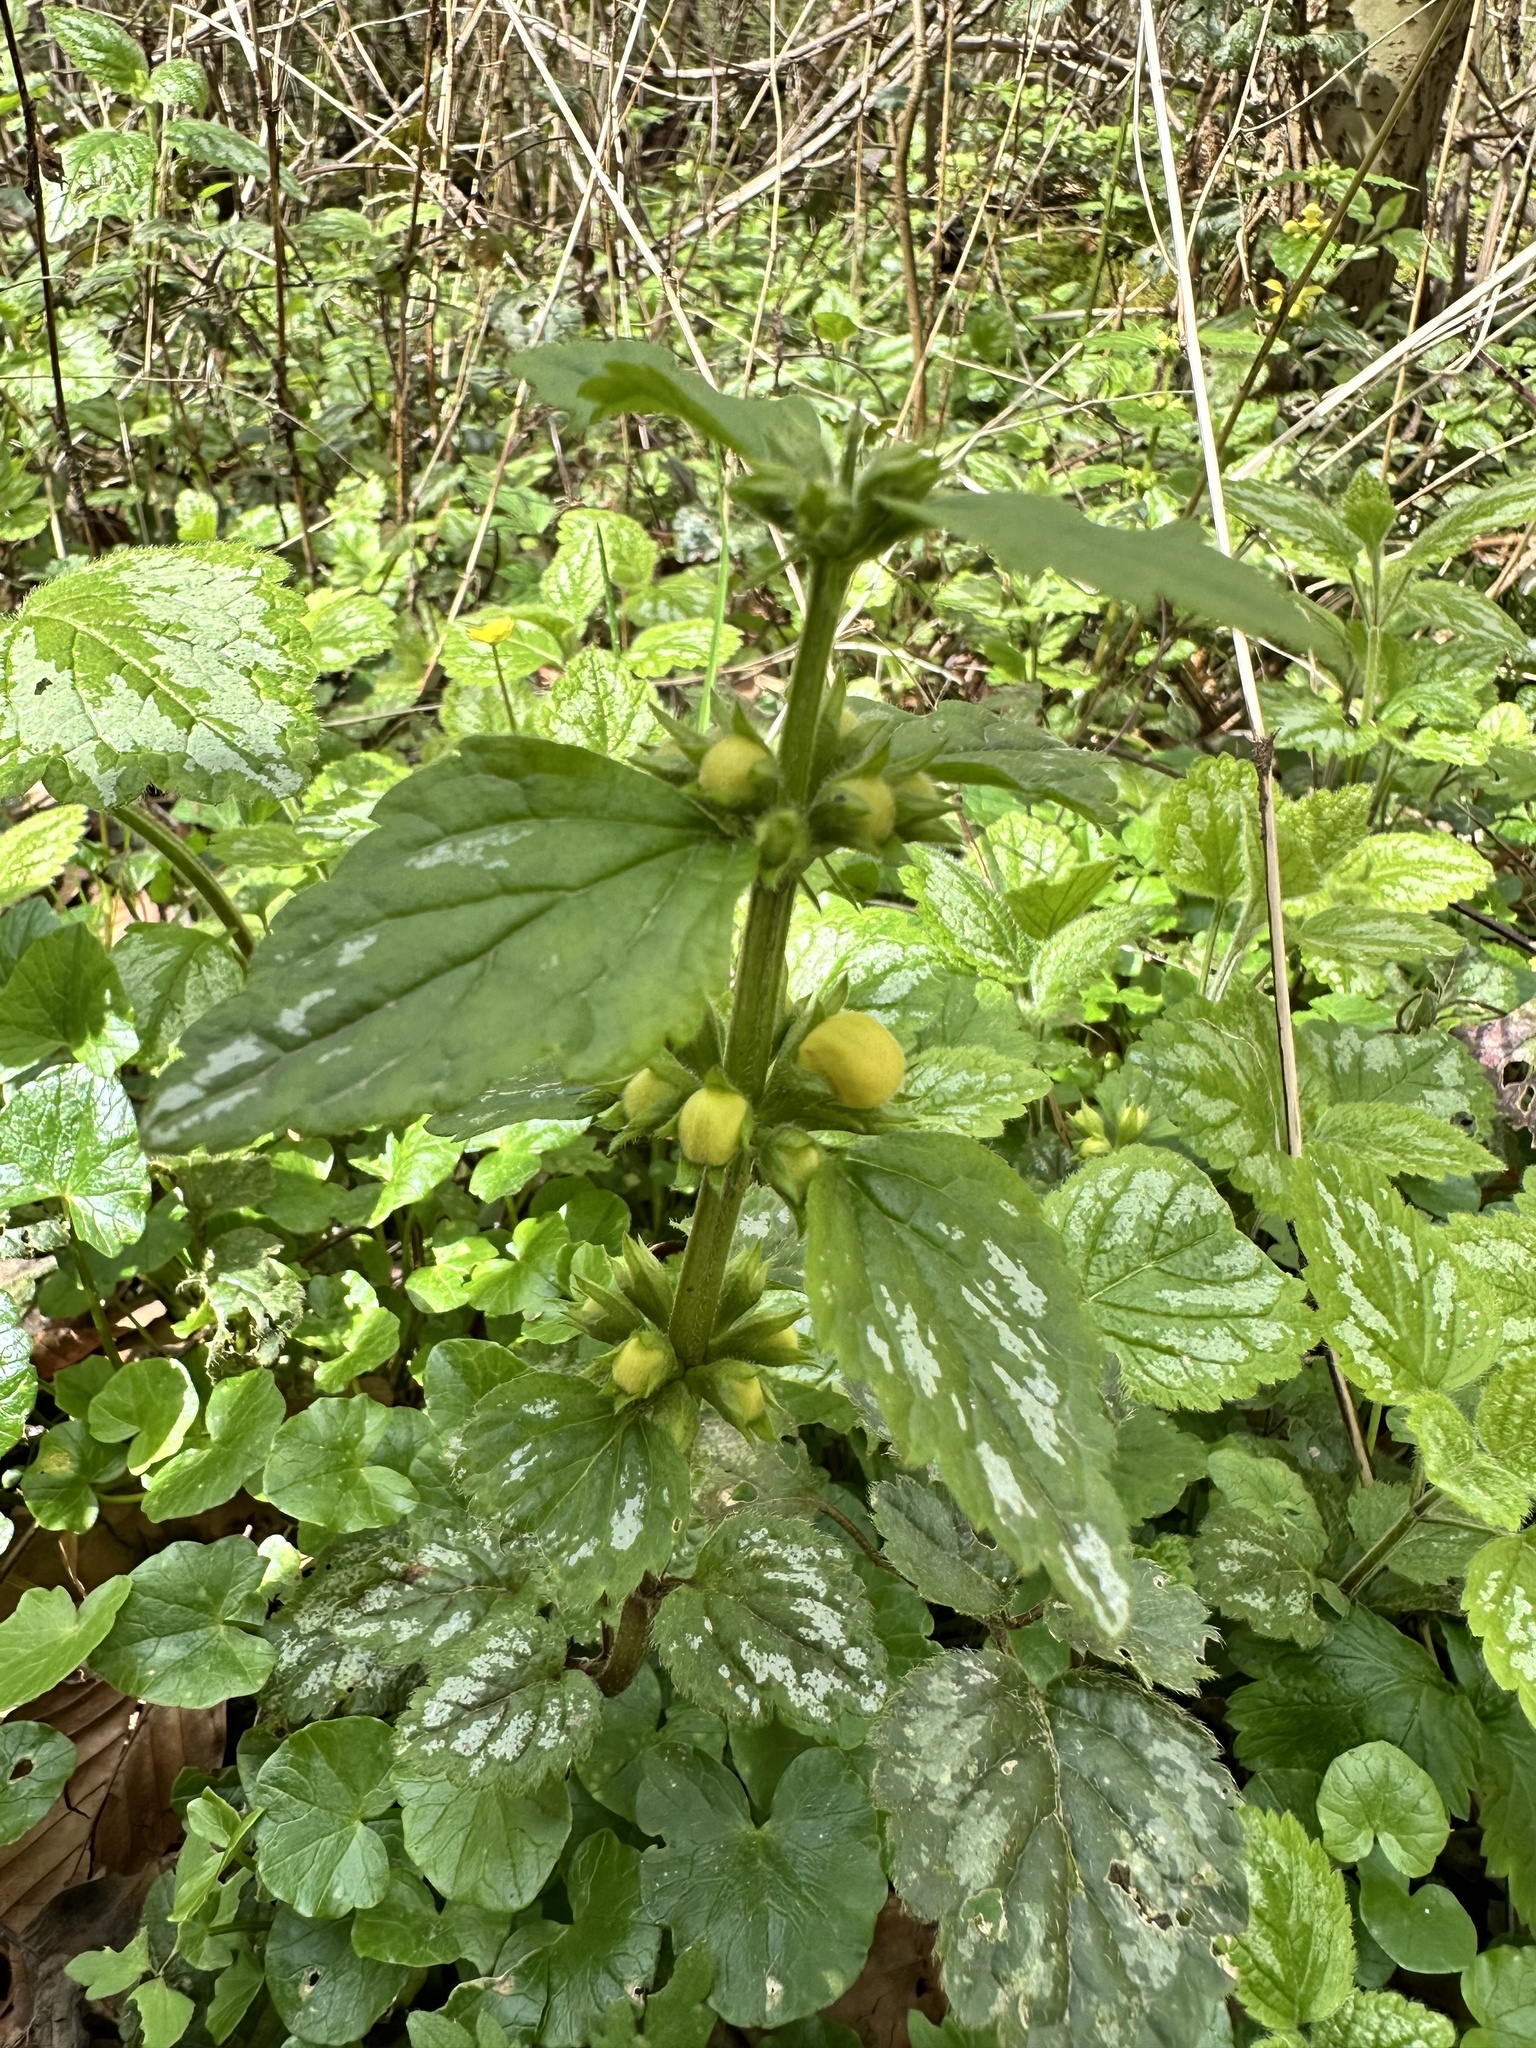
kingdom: Plantae
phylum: Tracheophyta
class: Magnoliopsida
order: Lamiales
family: Lamiaceae
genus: Lamium
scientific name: Lamium galeobdolon
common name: Yellow archangel
